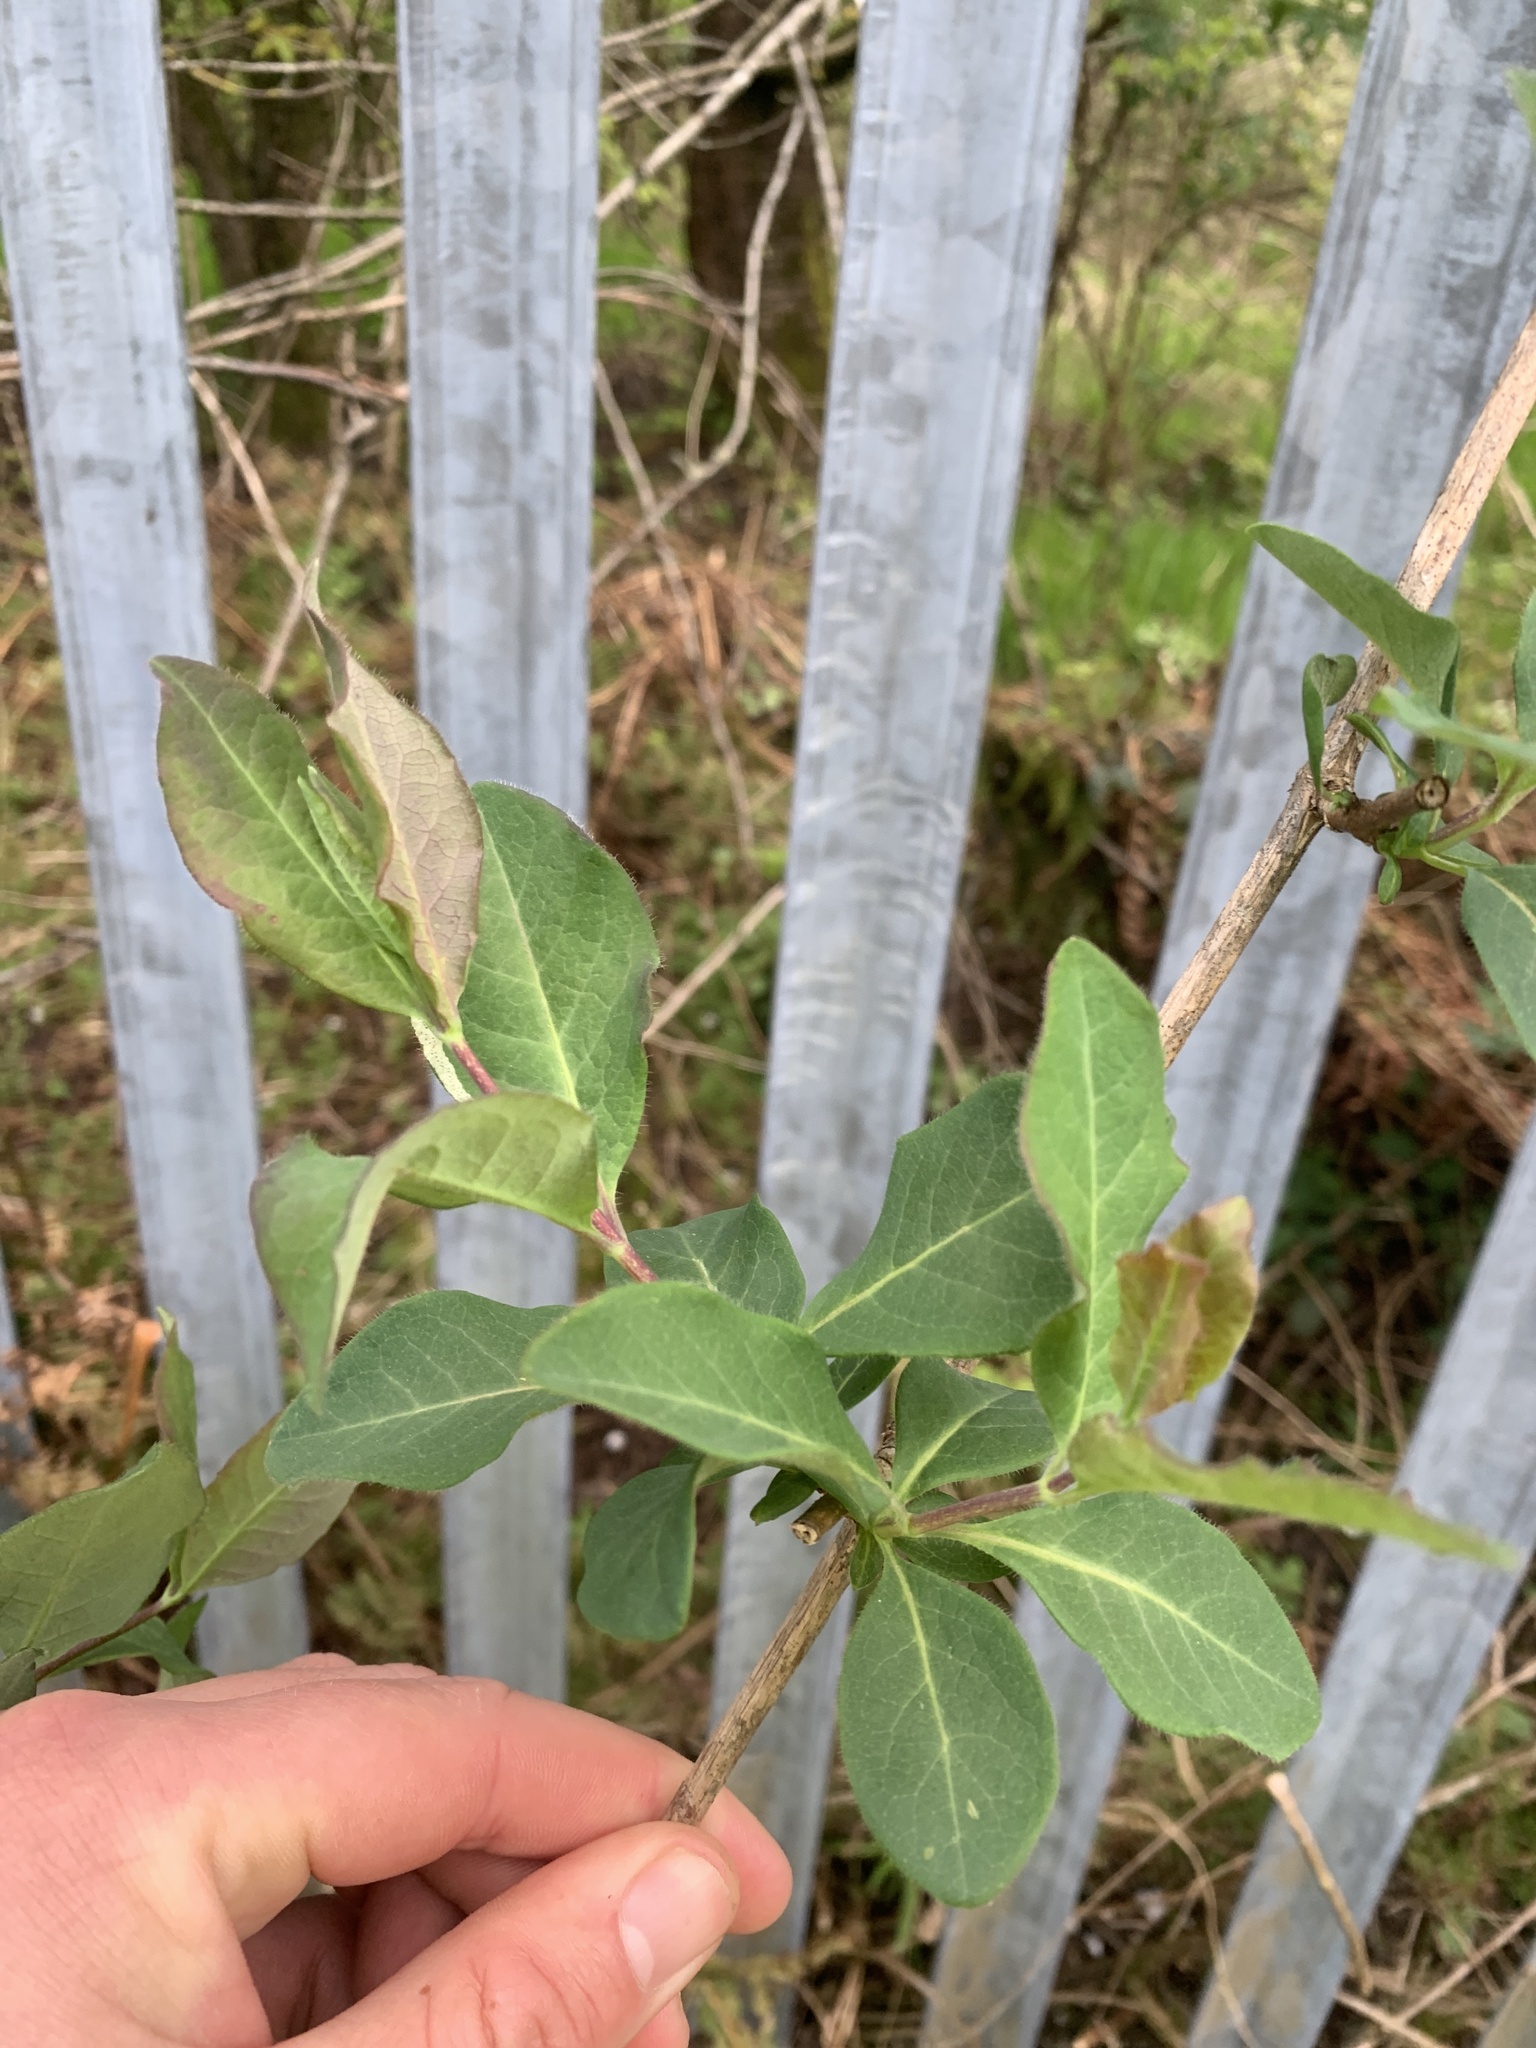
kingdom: Plantae
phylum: Tracheophyta
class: Magnoliopsida
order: Dipsacales
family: Caprifoliaceae
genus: Lonicera
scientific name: Lonicera periclymenum
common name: European honeysuckle
